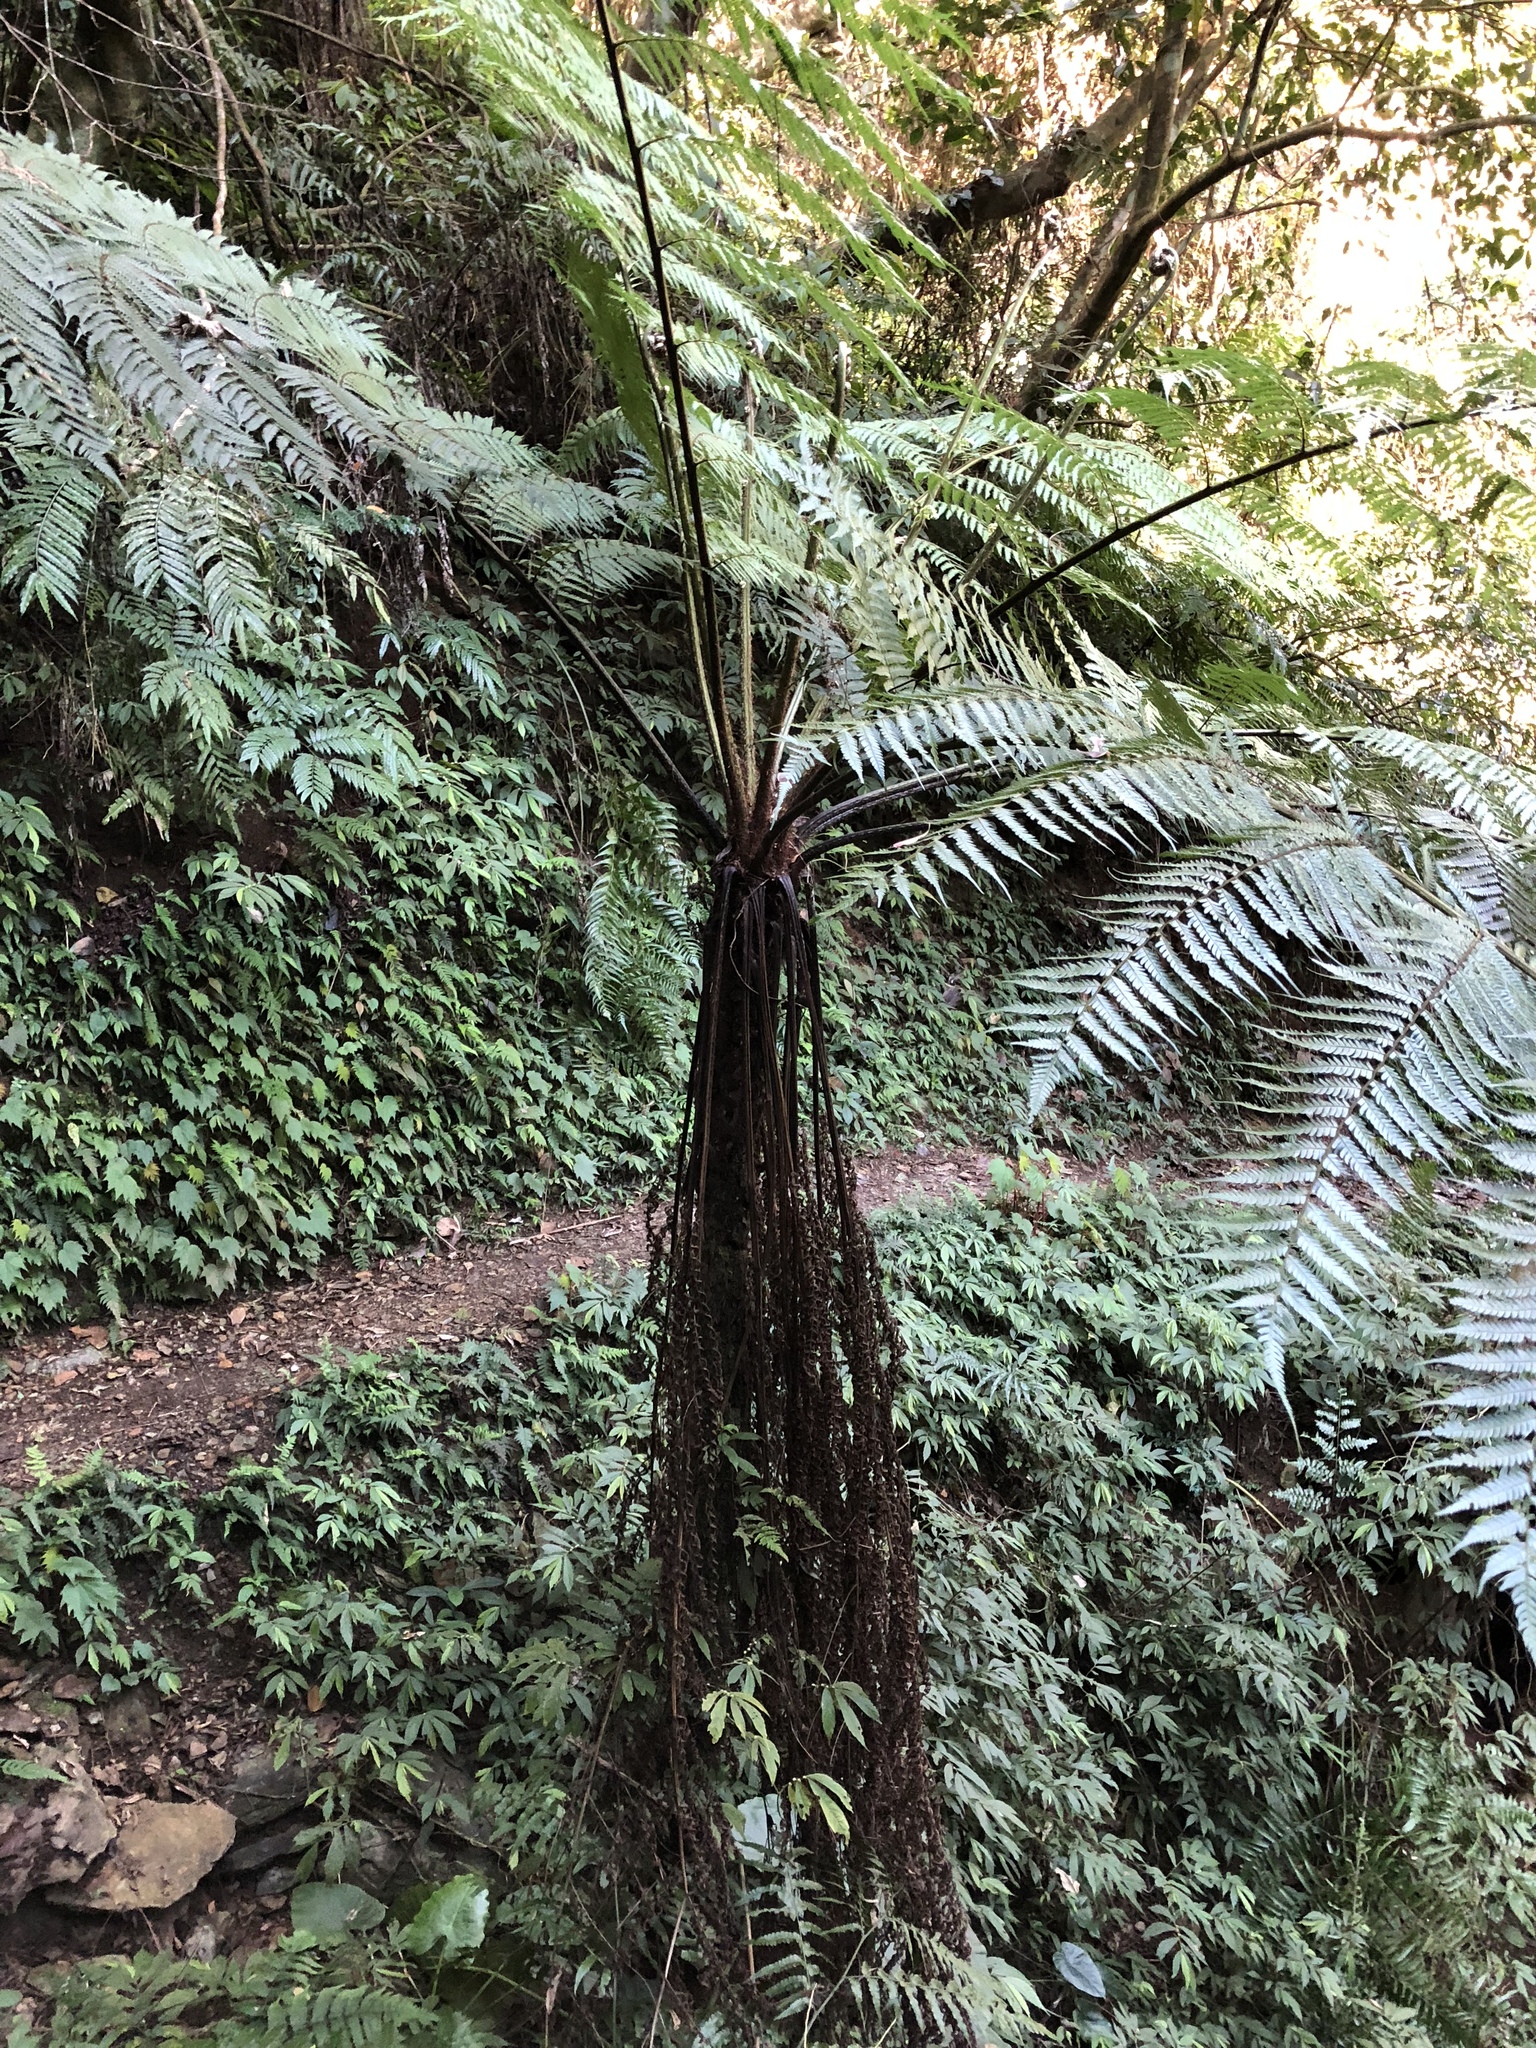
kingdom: Plantae
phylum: Tracheophyta
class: Polypodiopsida
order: Cyatheales
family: Cyatheaceae
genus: Alsophila
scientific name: Alsophila spinulosa
